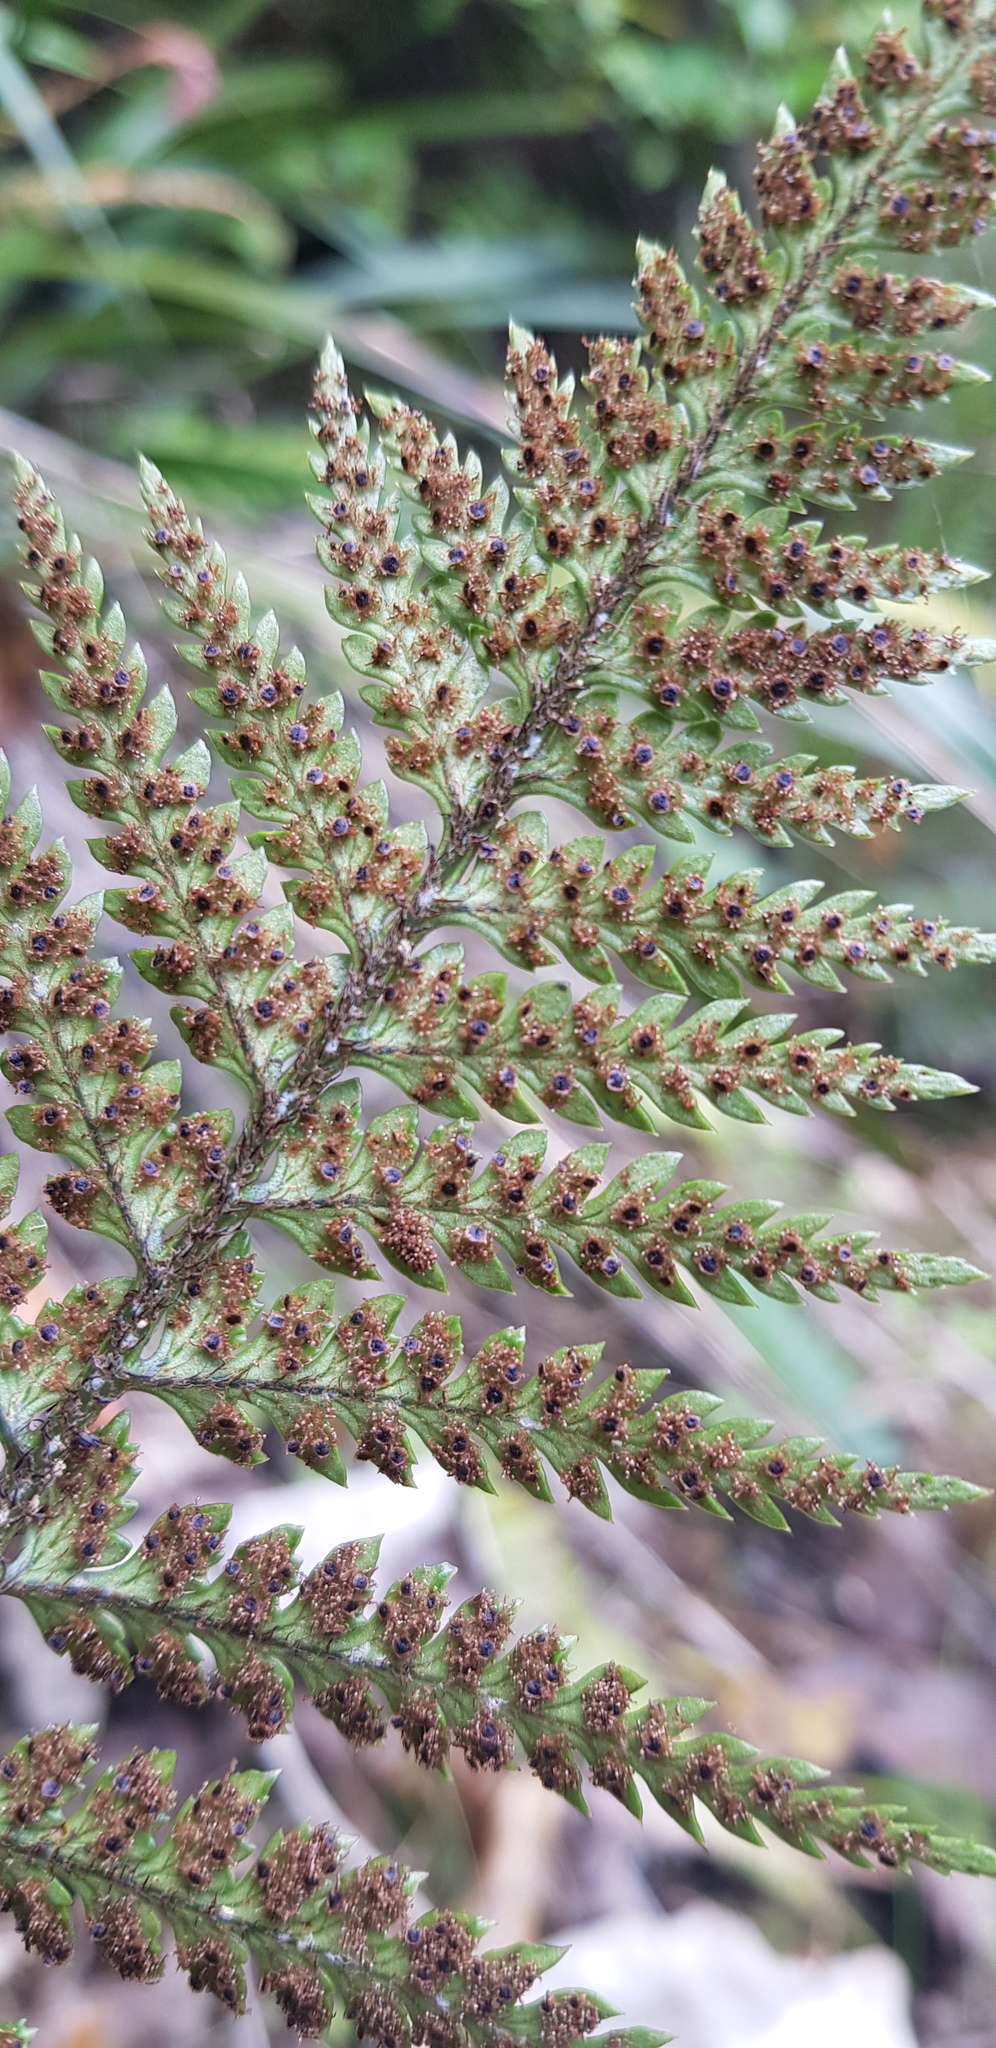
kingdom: Plantae
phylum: Tracheophyta
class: Polypodiopsida
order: Polypodiales
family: Dryopteridaceae
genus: Polystichum
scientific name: Polystichum neozelandicum
